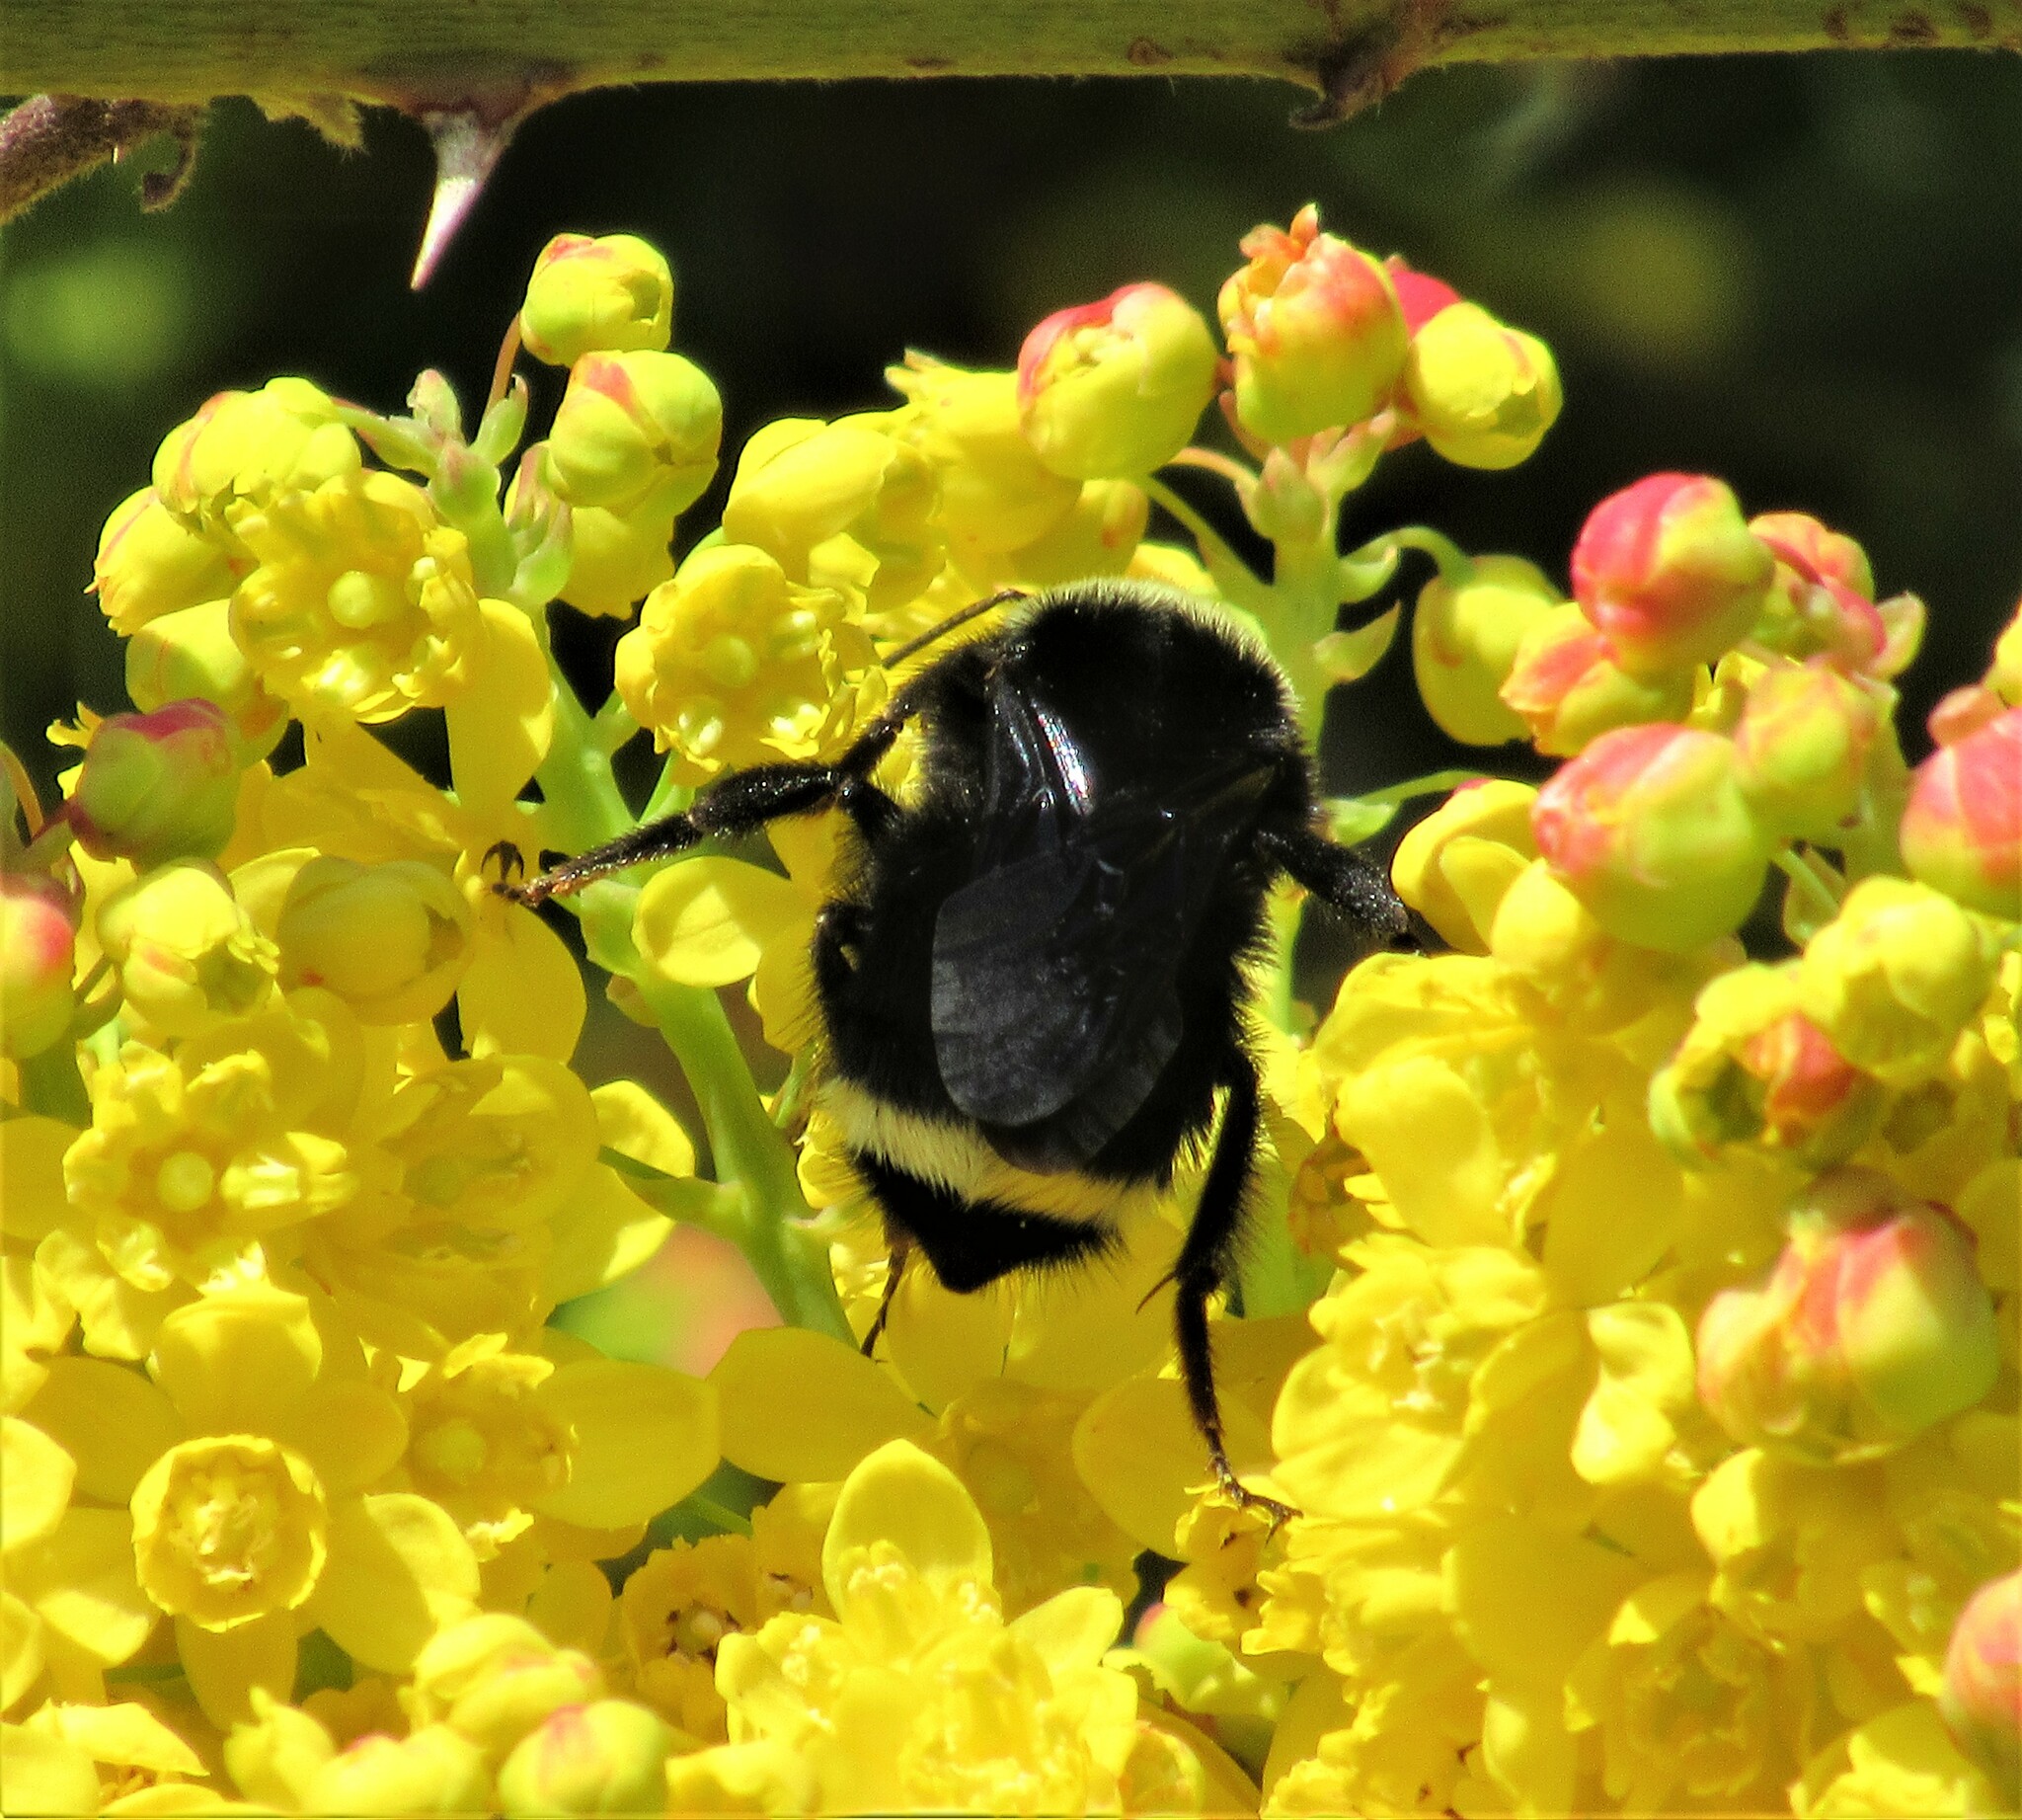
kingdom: Animalia
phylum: Arthropoda
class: Insecta
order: Hymenoptera
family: Apidae
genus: Bombus
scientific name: Bombus vosnesenskii
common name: Vosnesensky bumble bee
